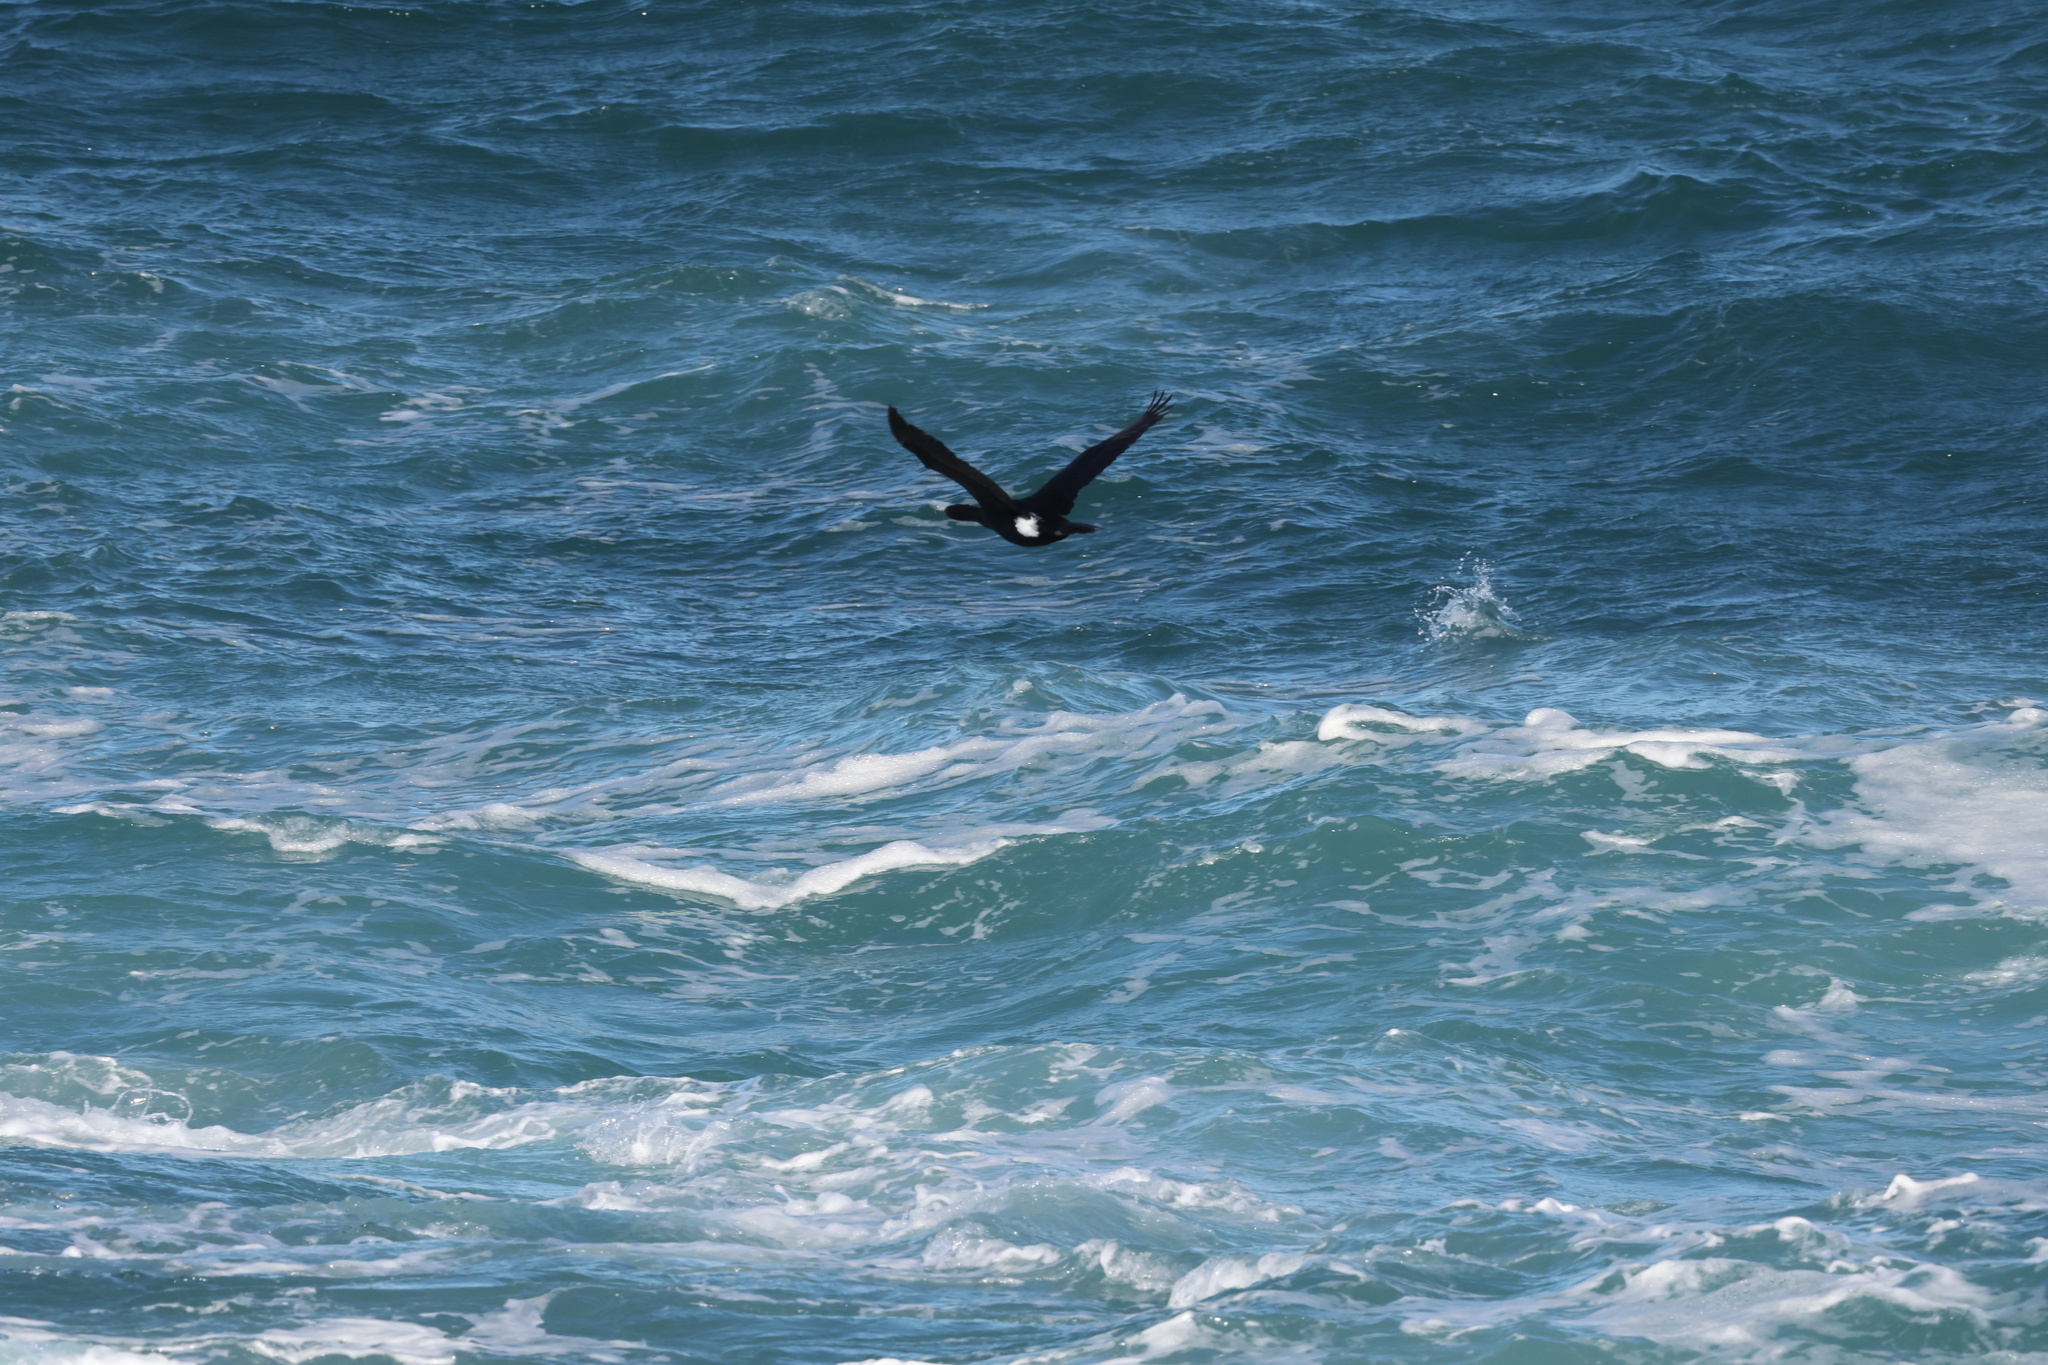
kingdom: Animalia
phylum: Chordata
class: Aves
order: Suliformes
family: Phalacrocoracidae
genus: Phalacrocorax
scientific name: Phalacrocorax pelagicus
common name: Pelagic cormorant
